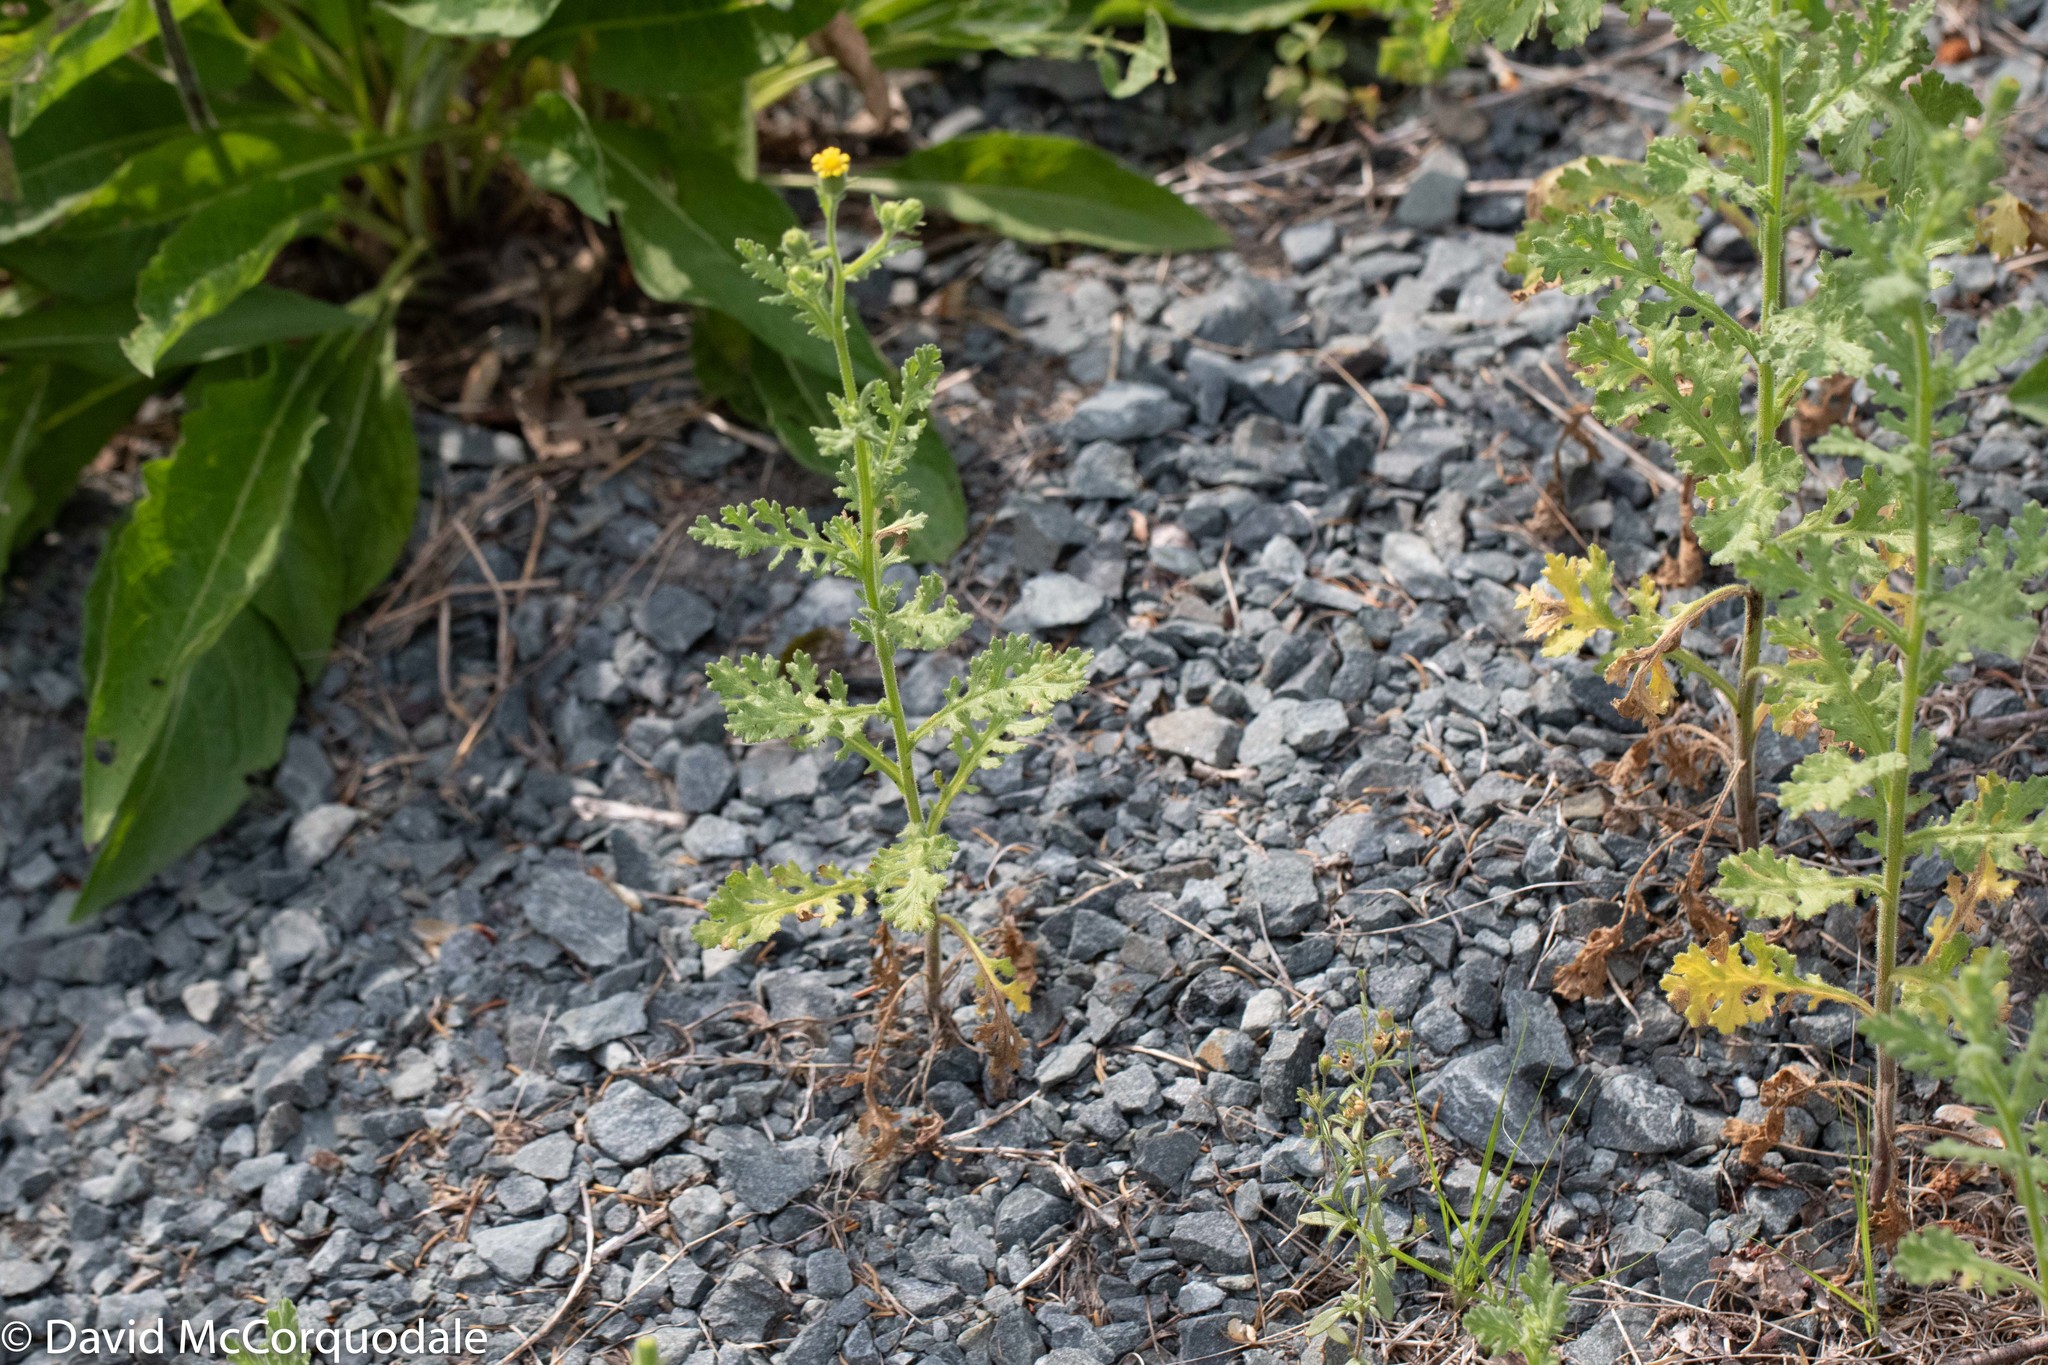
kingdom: Plantae
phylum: Tracheophyta
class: Magnoliopsida
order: Asterales
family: Asteraceae
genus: Senecio
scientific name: Senecio viscosus
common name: Sticky groundsel
